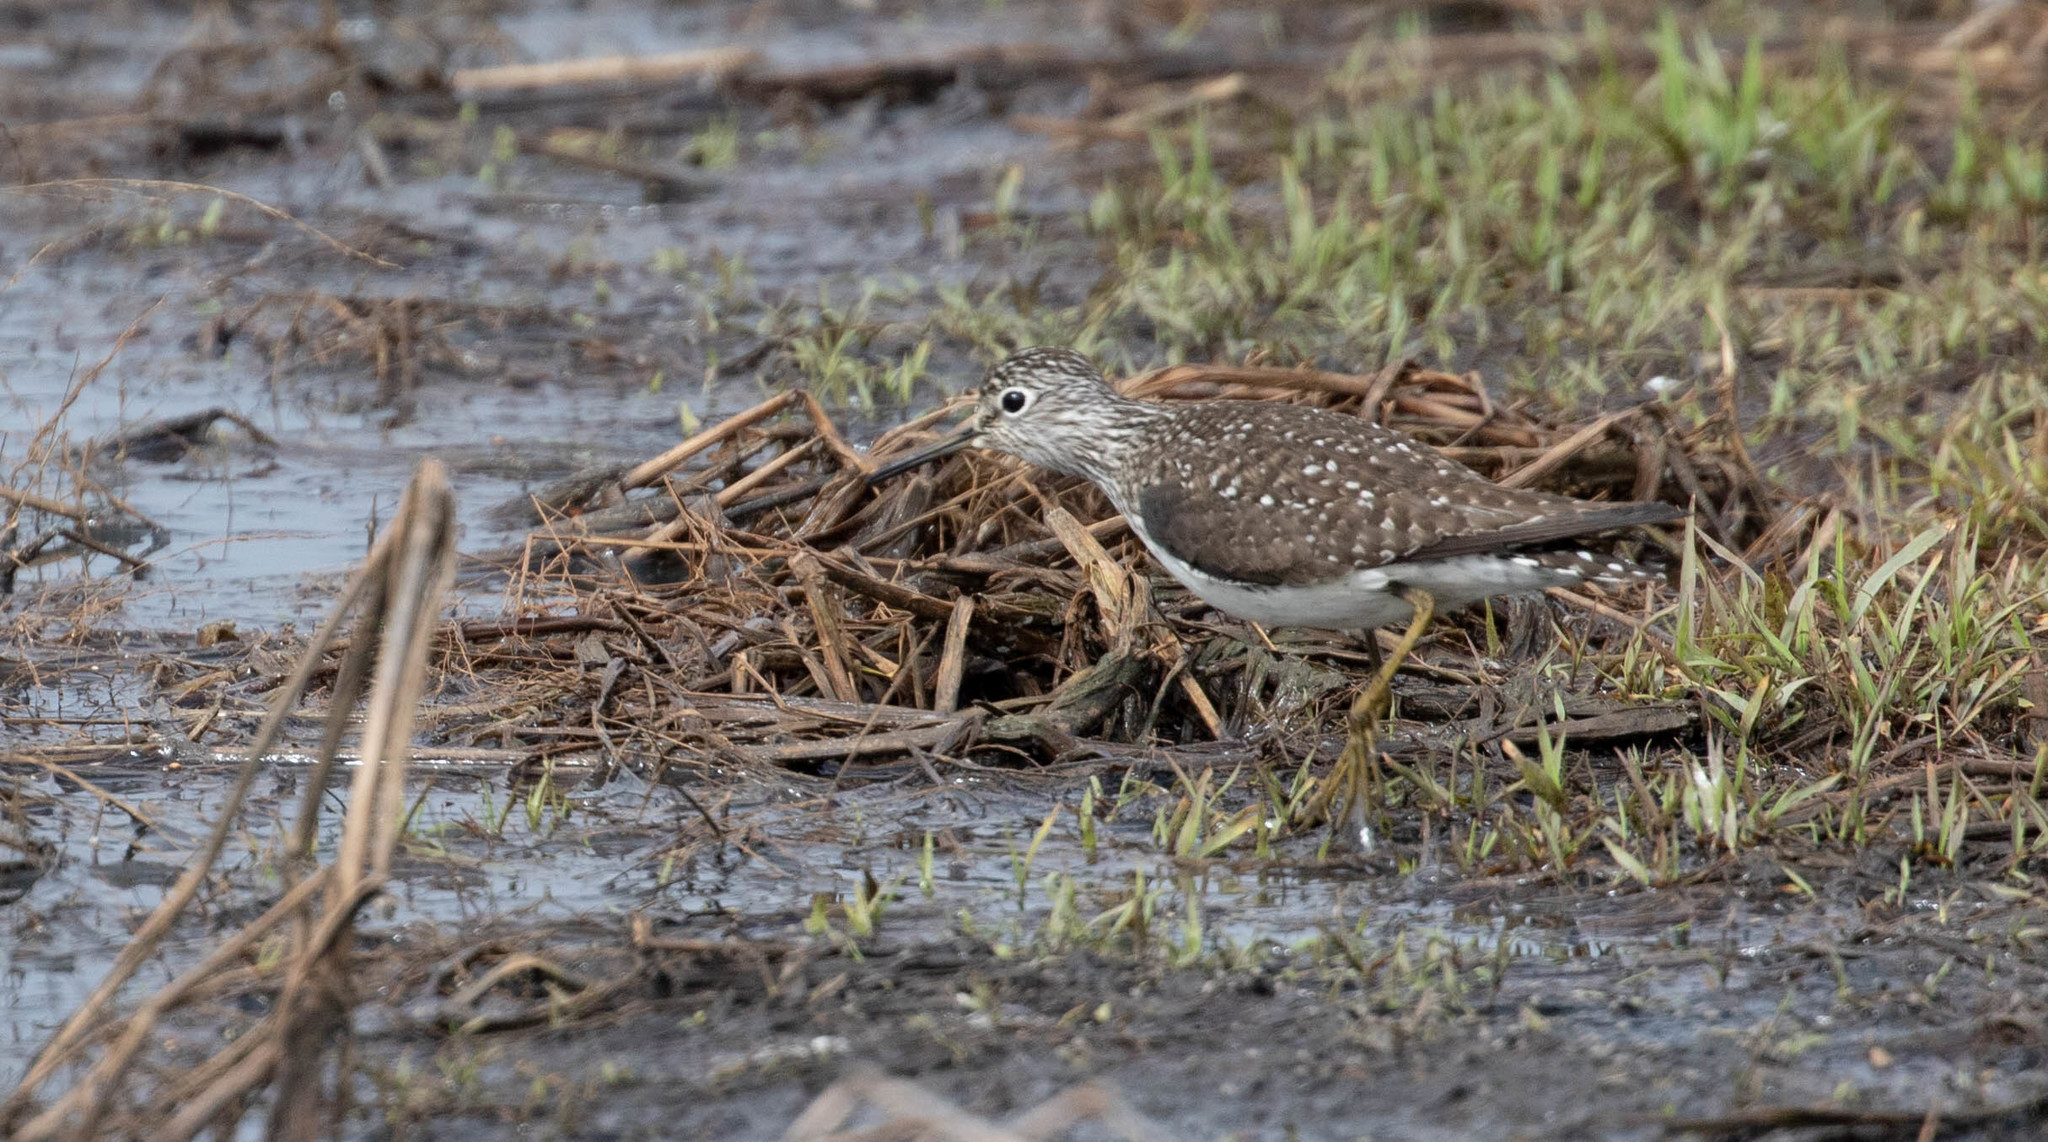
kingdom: Animalia
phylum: Chordata
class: Aves
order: Charadriiformes
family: Scolopacidae
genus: Tringa
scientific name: Tringa solitaria
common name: Solitary sandpiper
